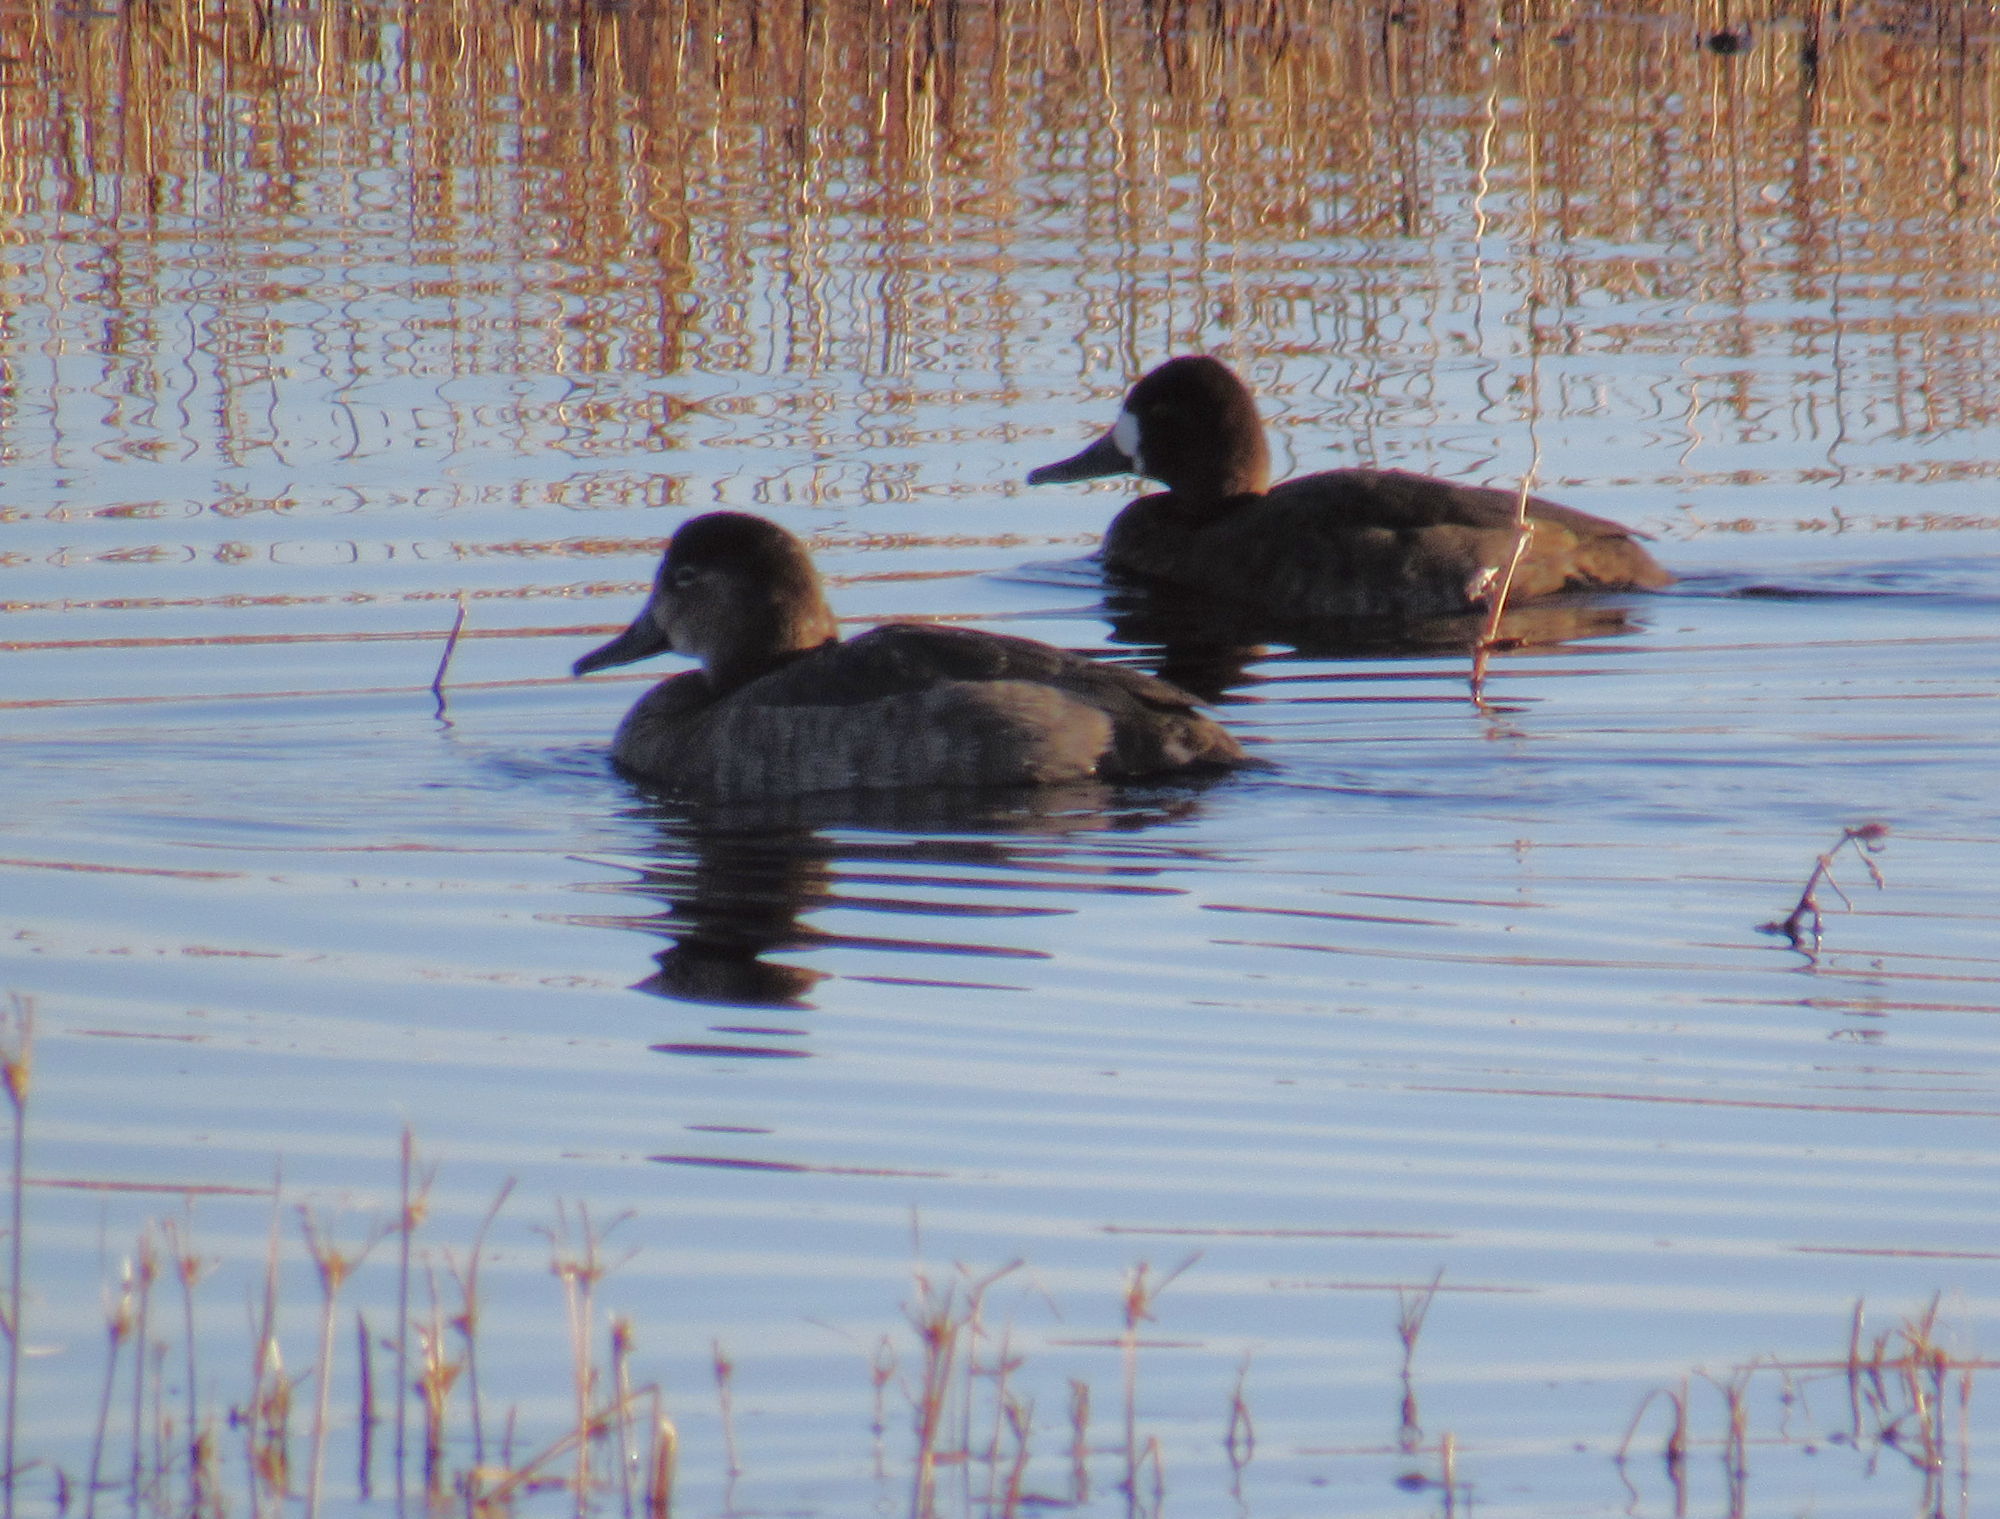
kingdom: Animalia
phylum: Chordata
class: Aves
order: Anseriformes
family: Anatidae
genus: Aythya
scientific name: Aythya americana
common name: Redhead
